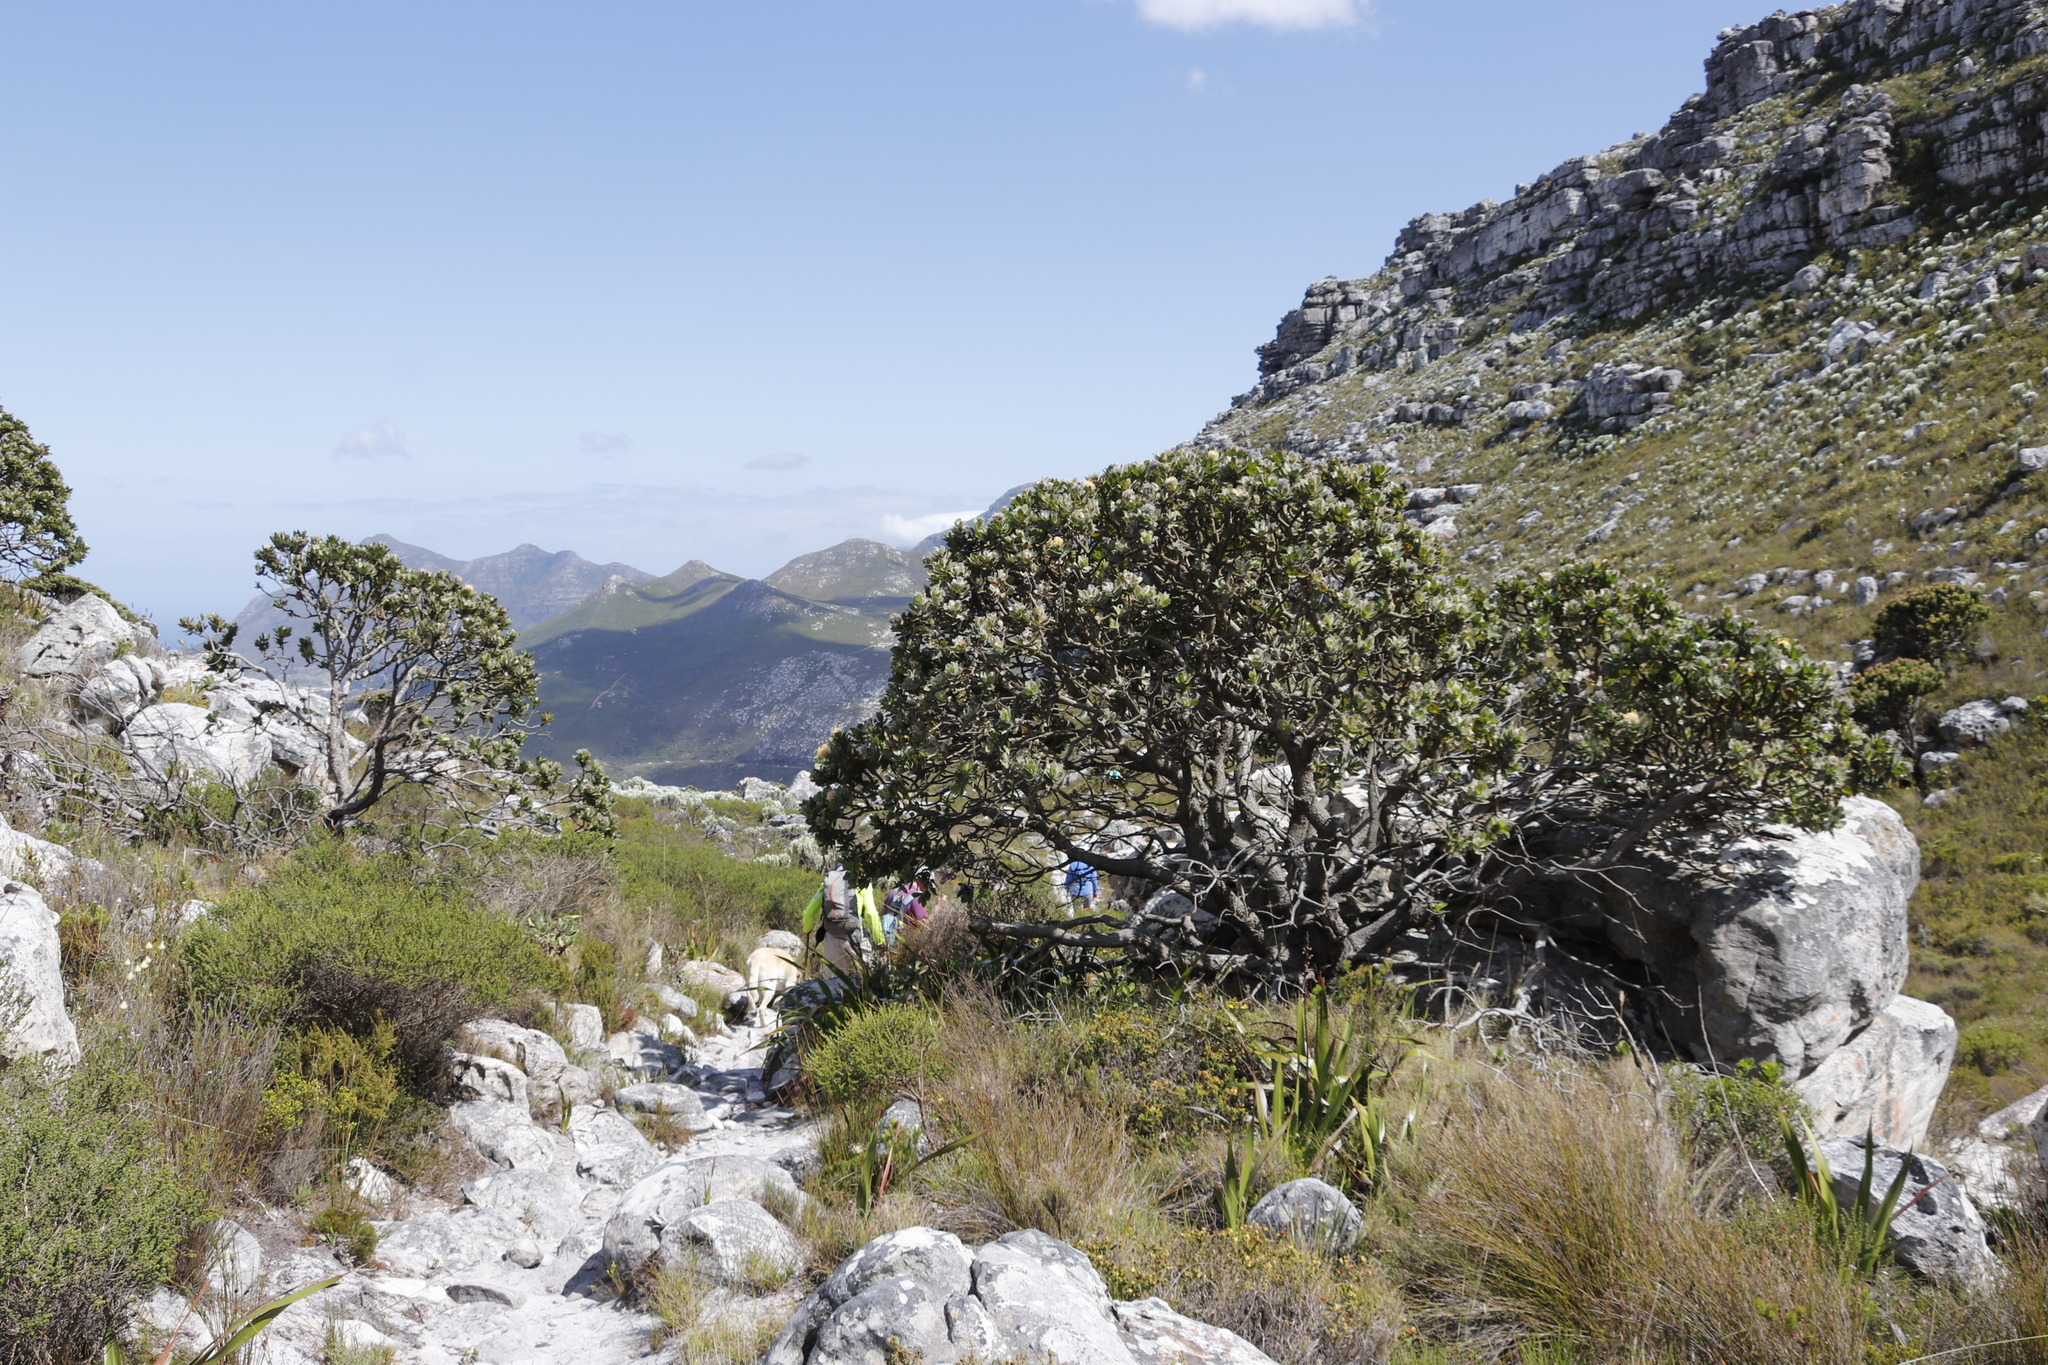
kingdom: Plantae
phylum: Tracheophyta
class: Magnoliopsida
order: Proteales
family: Proteaceae
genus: Leucospermum
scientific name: Leucospermum conocarpodendron
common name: Tree pincushion
